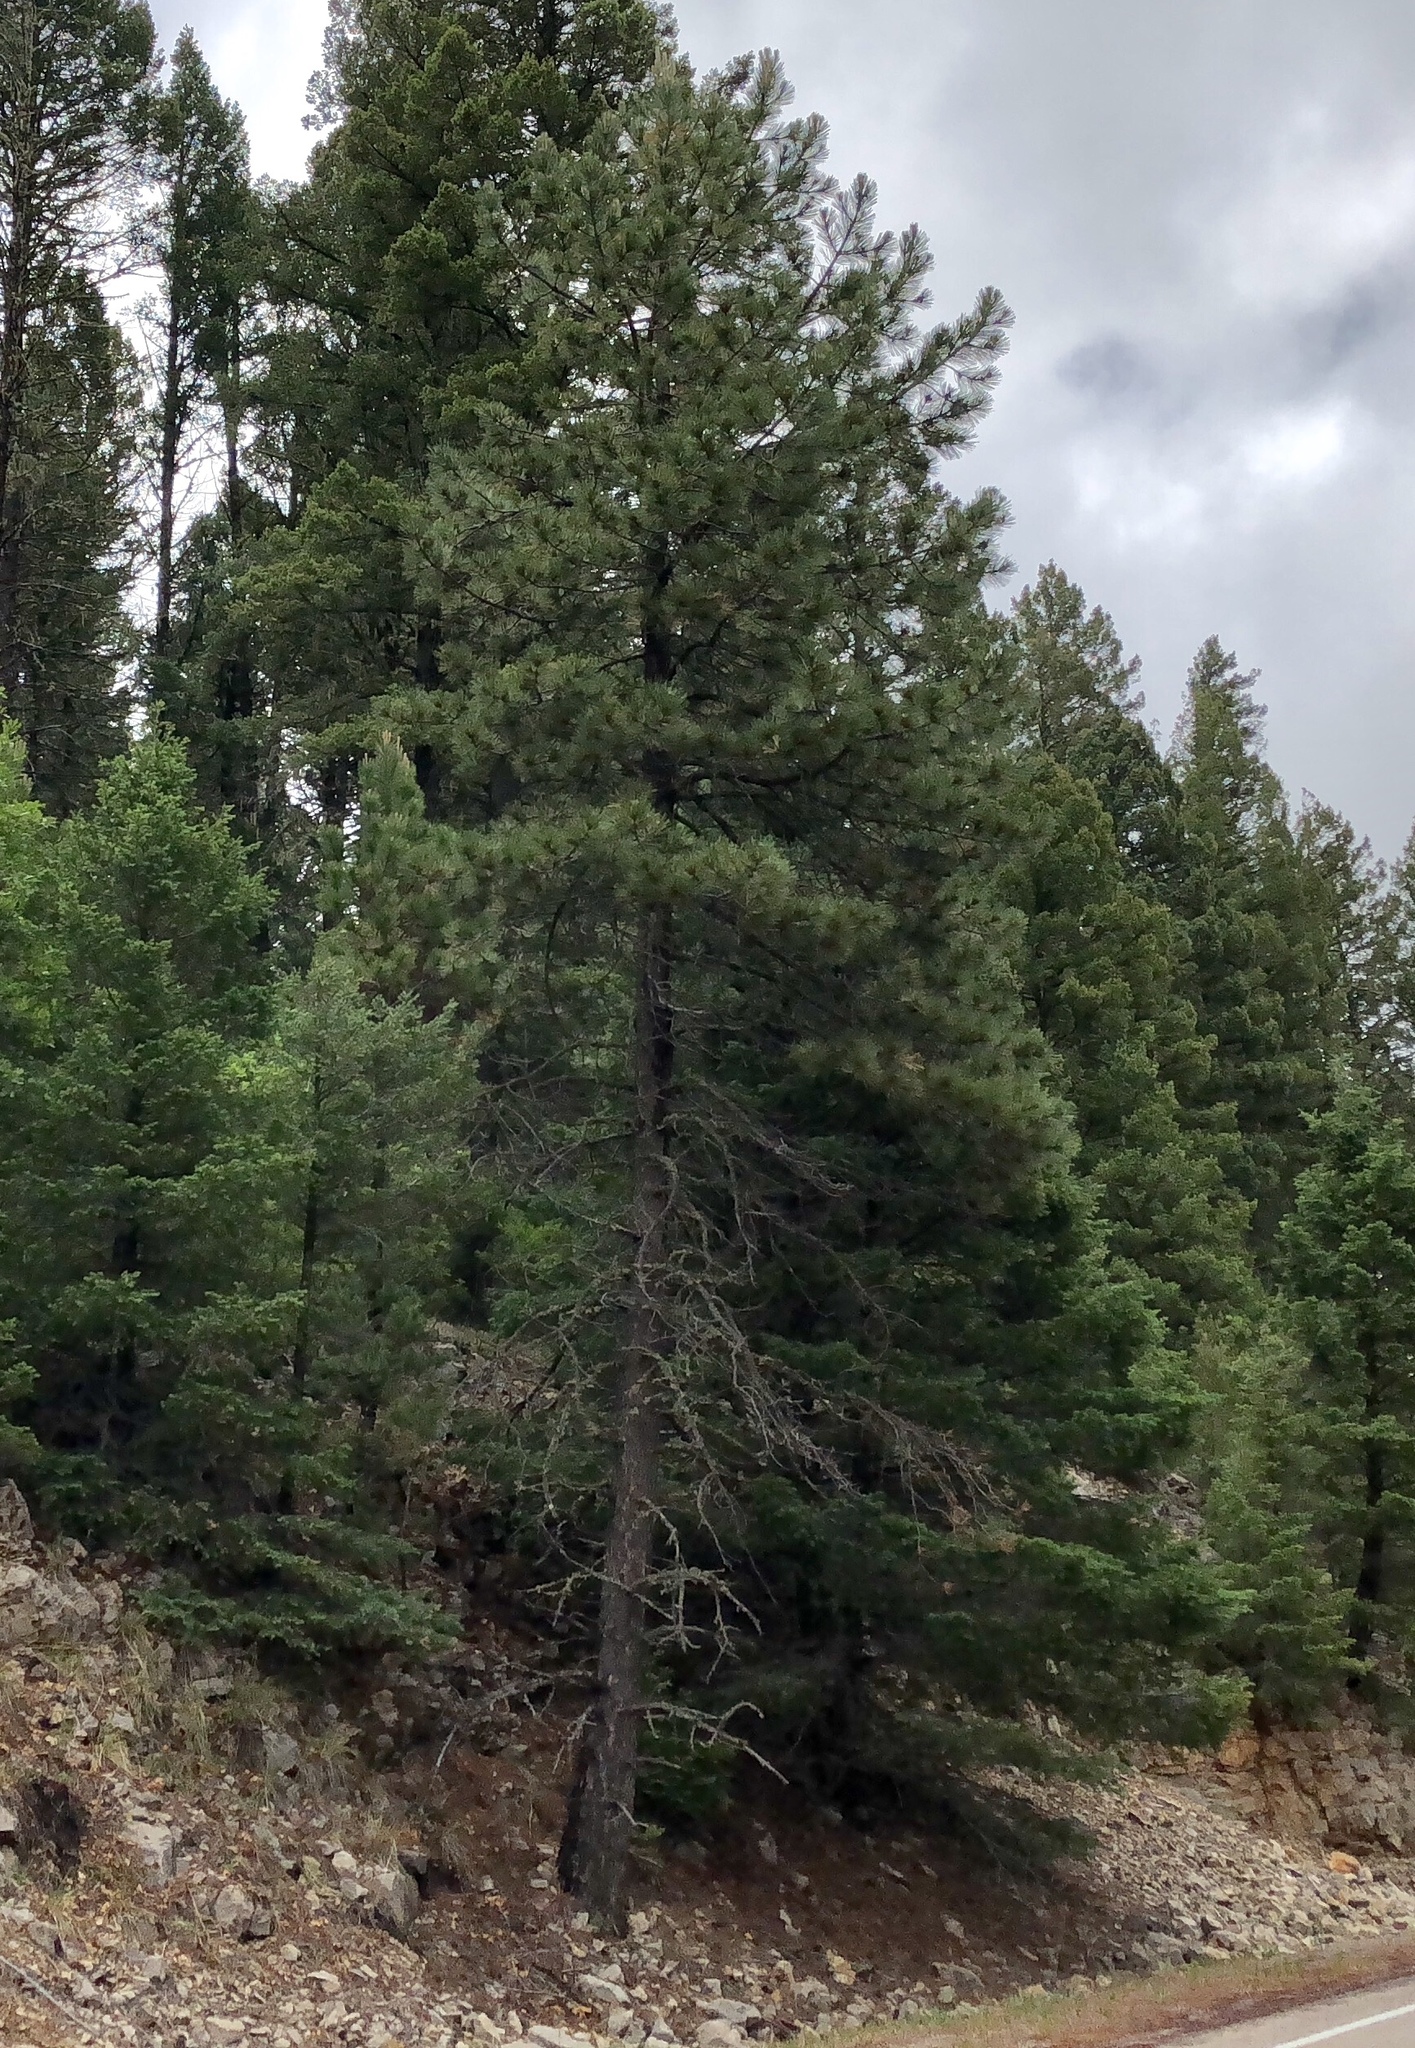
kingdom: Plantae
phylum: Tracheophyta
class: Pinopsida
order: Pinales
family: Pinaceae
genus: Pinus
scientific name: Pinus ponderosa
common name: Western yellow-pine
